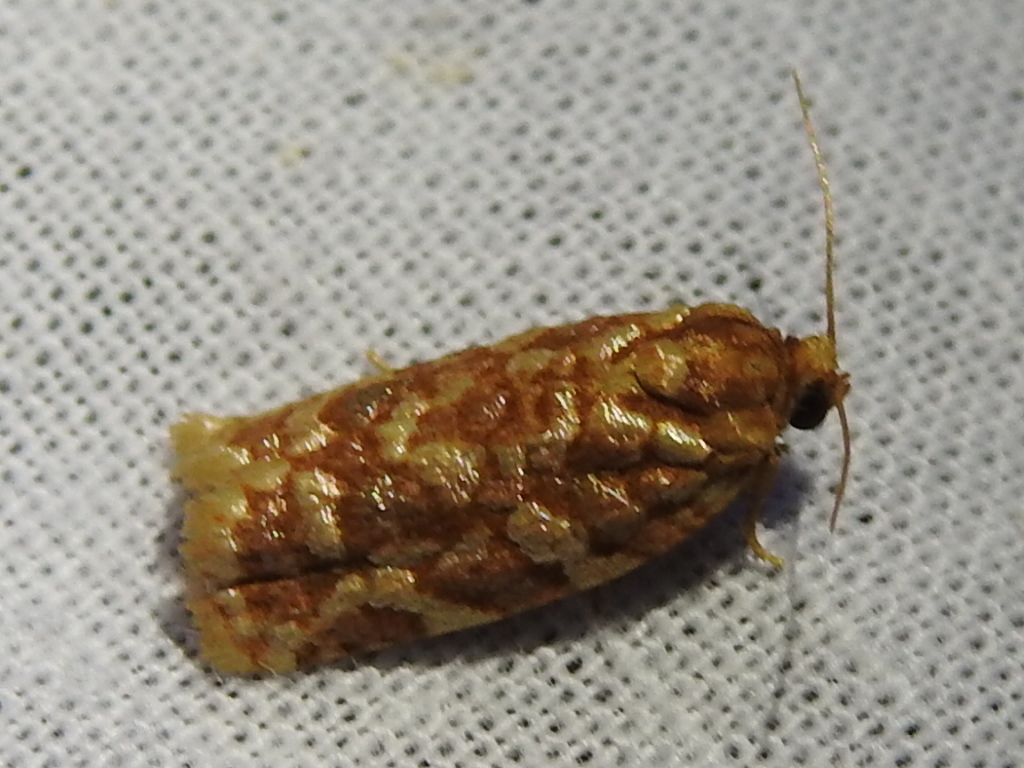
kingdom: Animalia
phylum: Arthropoda
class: Insecta
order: Lepidoptera
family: Tortricidae
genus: Choristoneura
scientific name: Choristoneura houstonana
